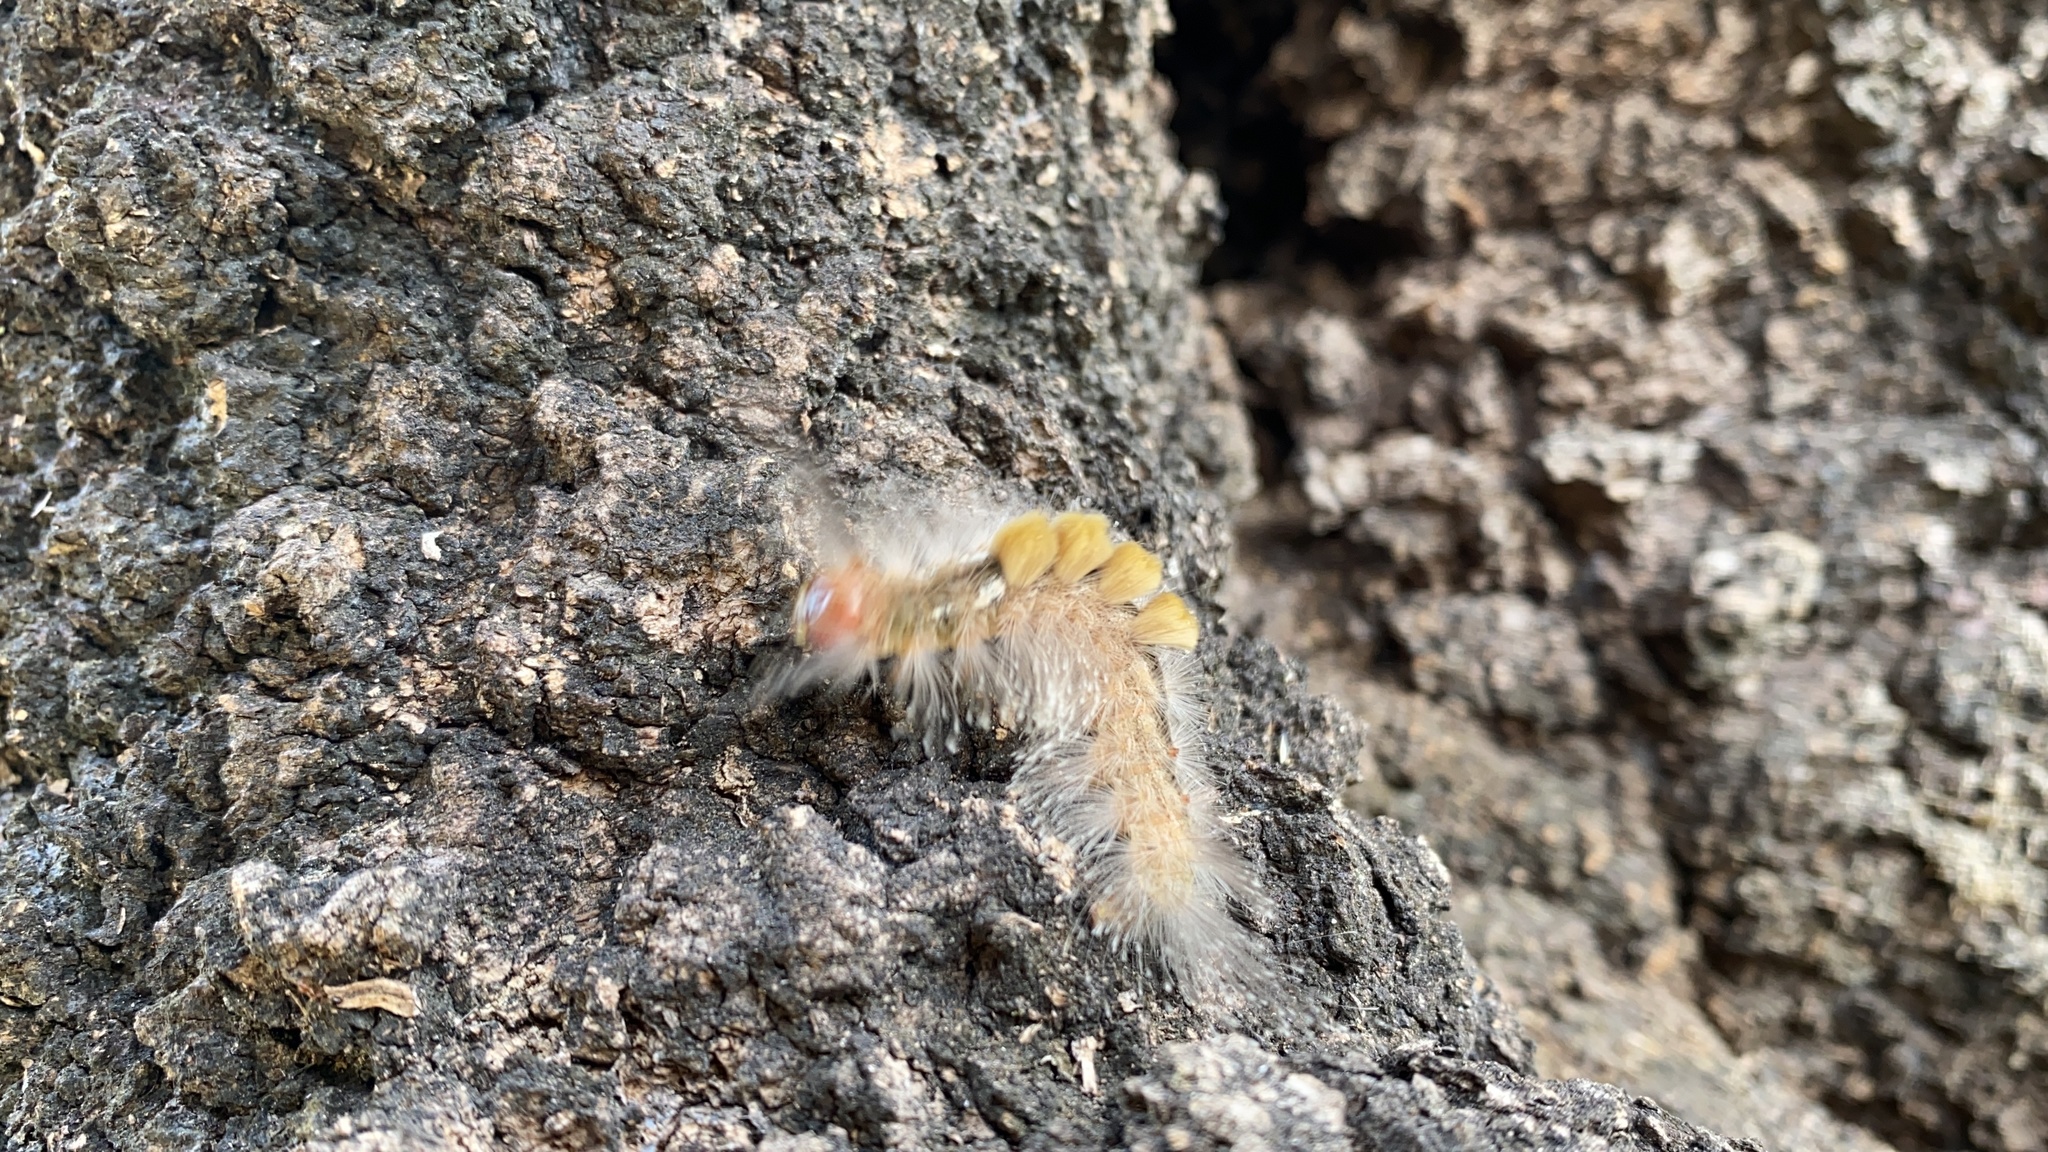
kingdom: Animalia
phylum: Arthropoda
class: Insecta
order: Lepidoptera
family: Erebidae
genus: Dasychira
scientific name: Dasychira chekiangensis
